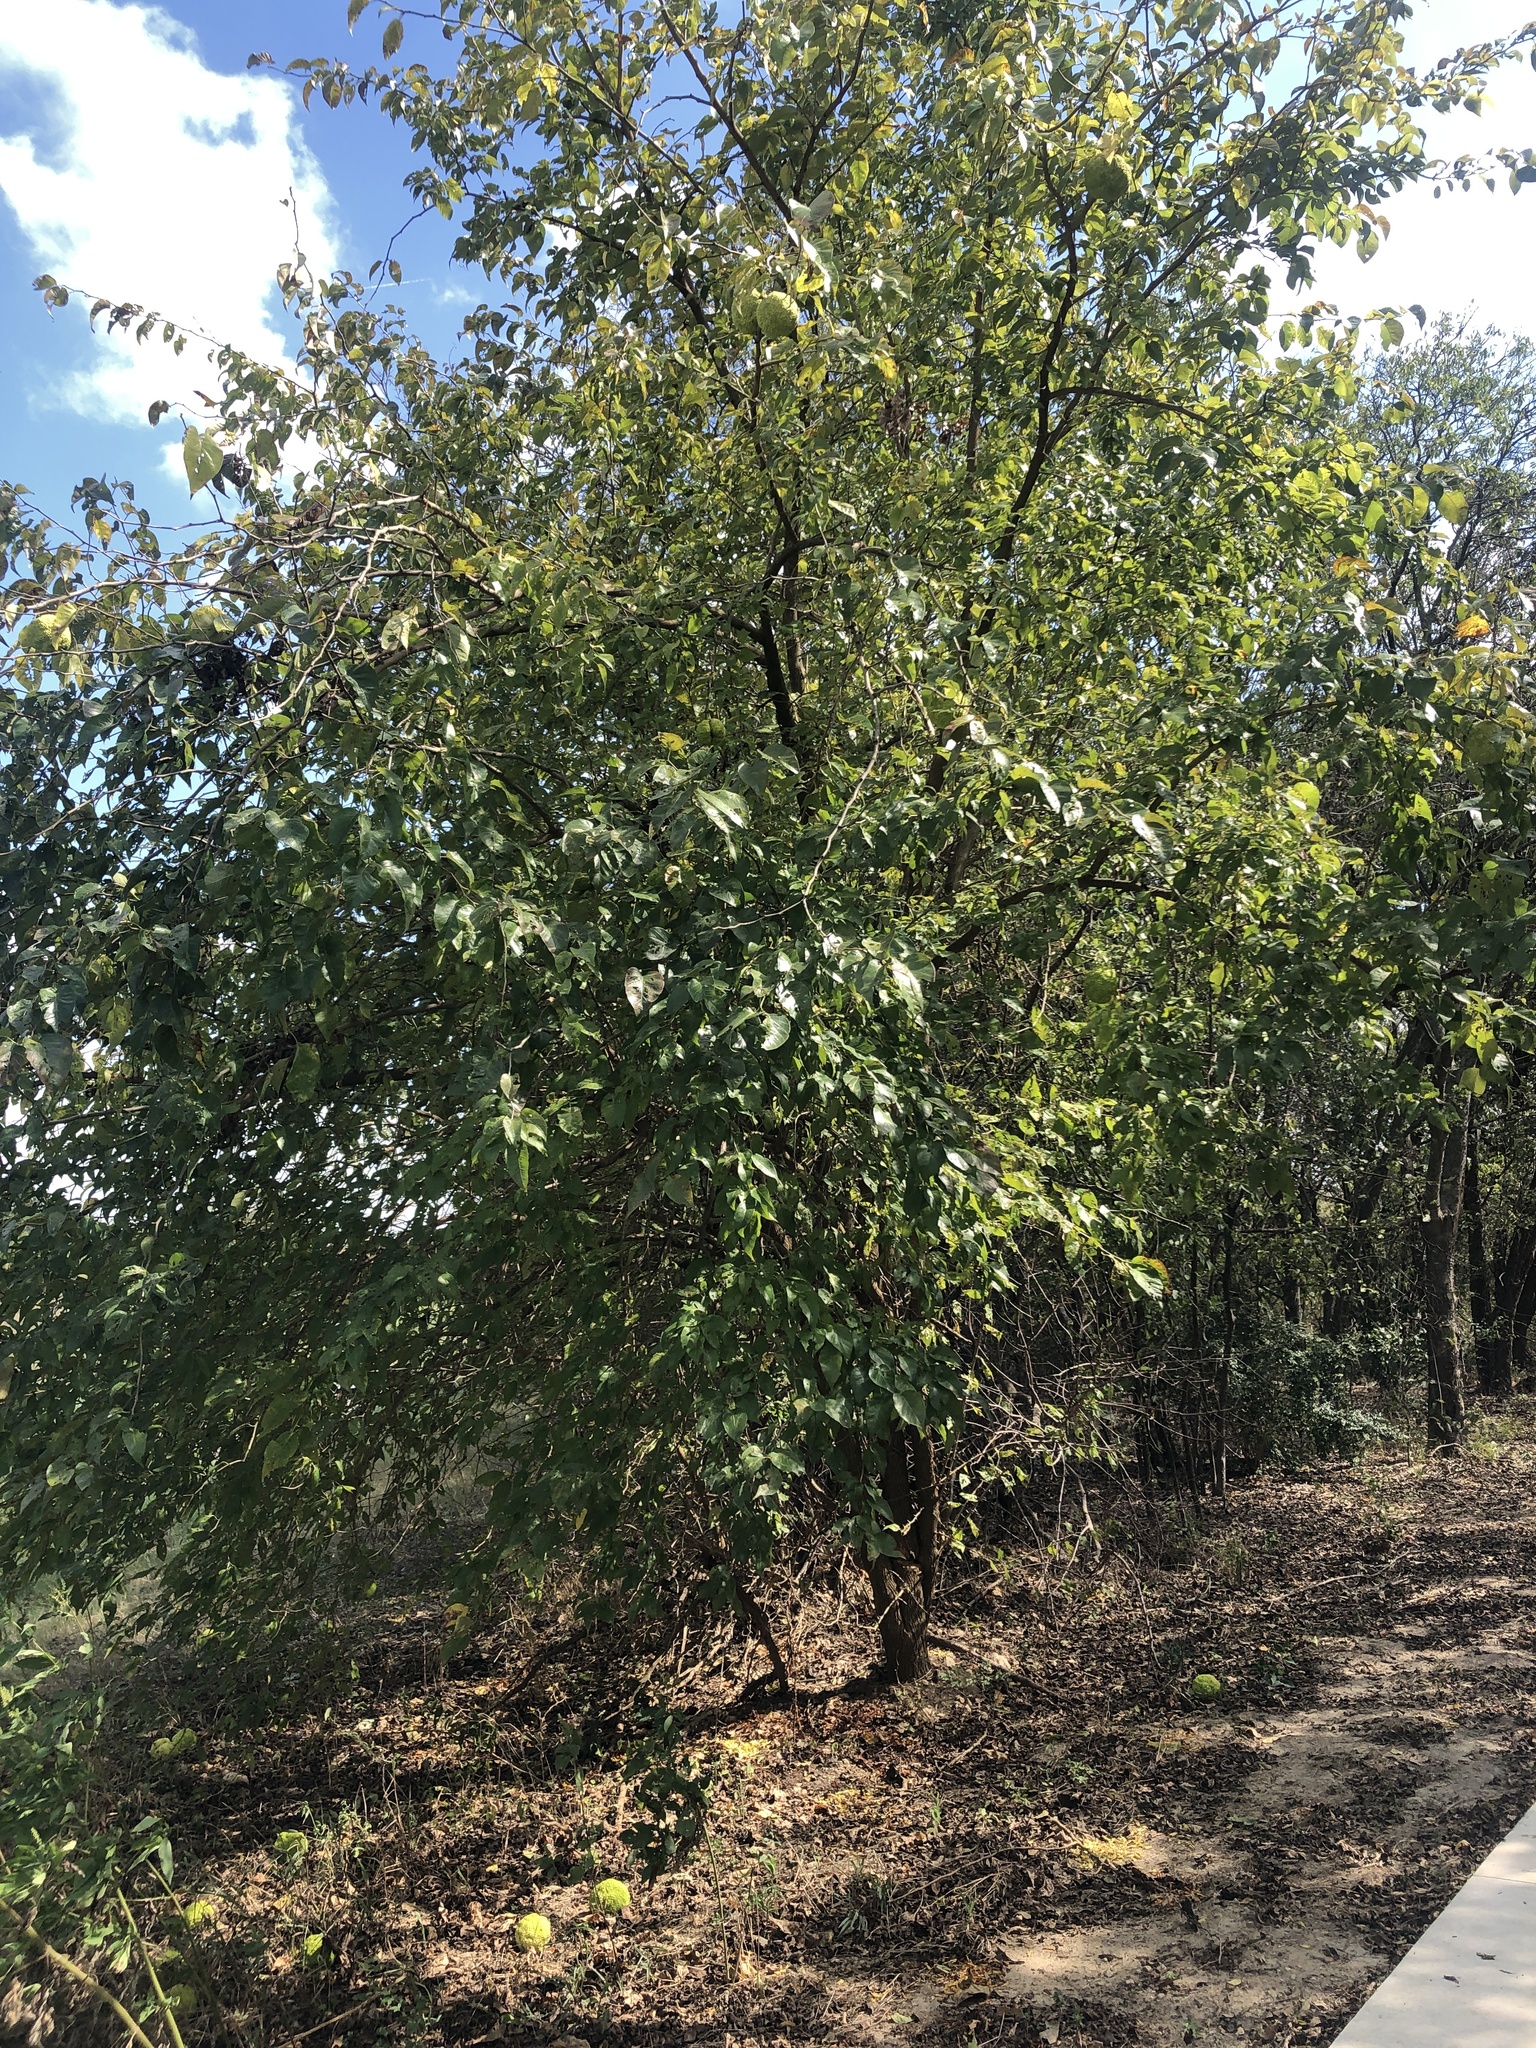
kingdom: Plantae
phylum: Tracheophyta
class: Magnoliopsida
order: Rosales
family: Moraceae
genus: Maclura
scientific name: Maclura pomifera
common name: Osage-orange
